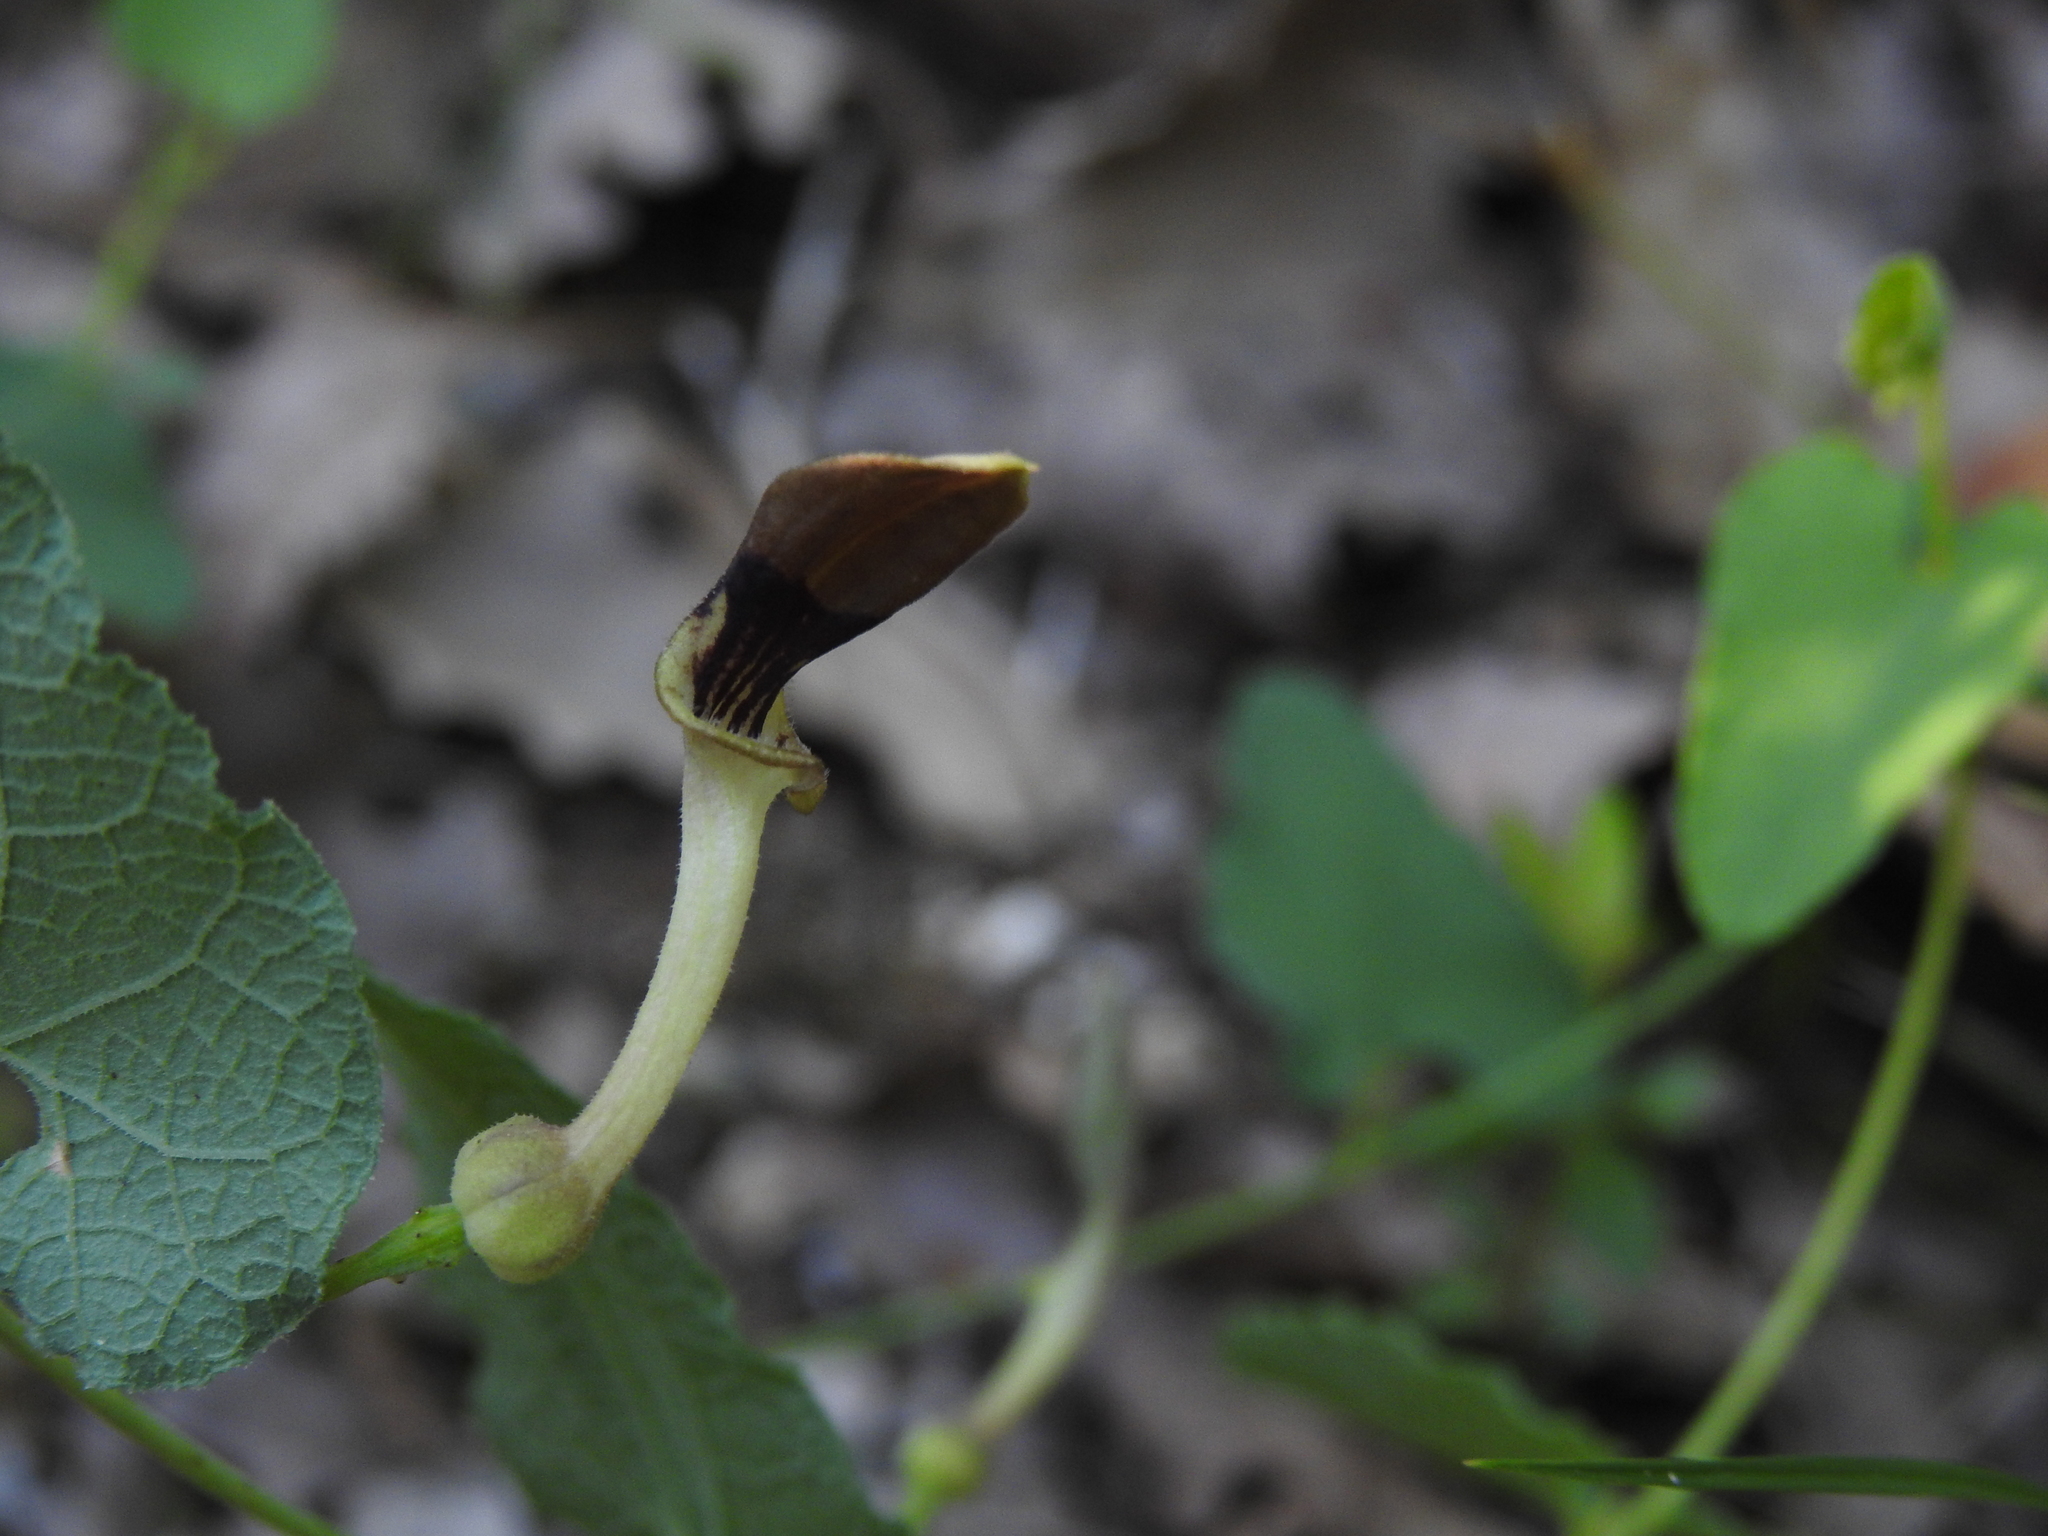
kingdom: Plantae
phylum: Tracheophyta
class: Magnoliopsida
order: Piperales
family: Aristolochiaceae
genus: Aristolochia
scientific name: Aristolochia pistolochia
